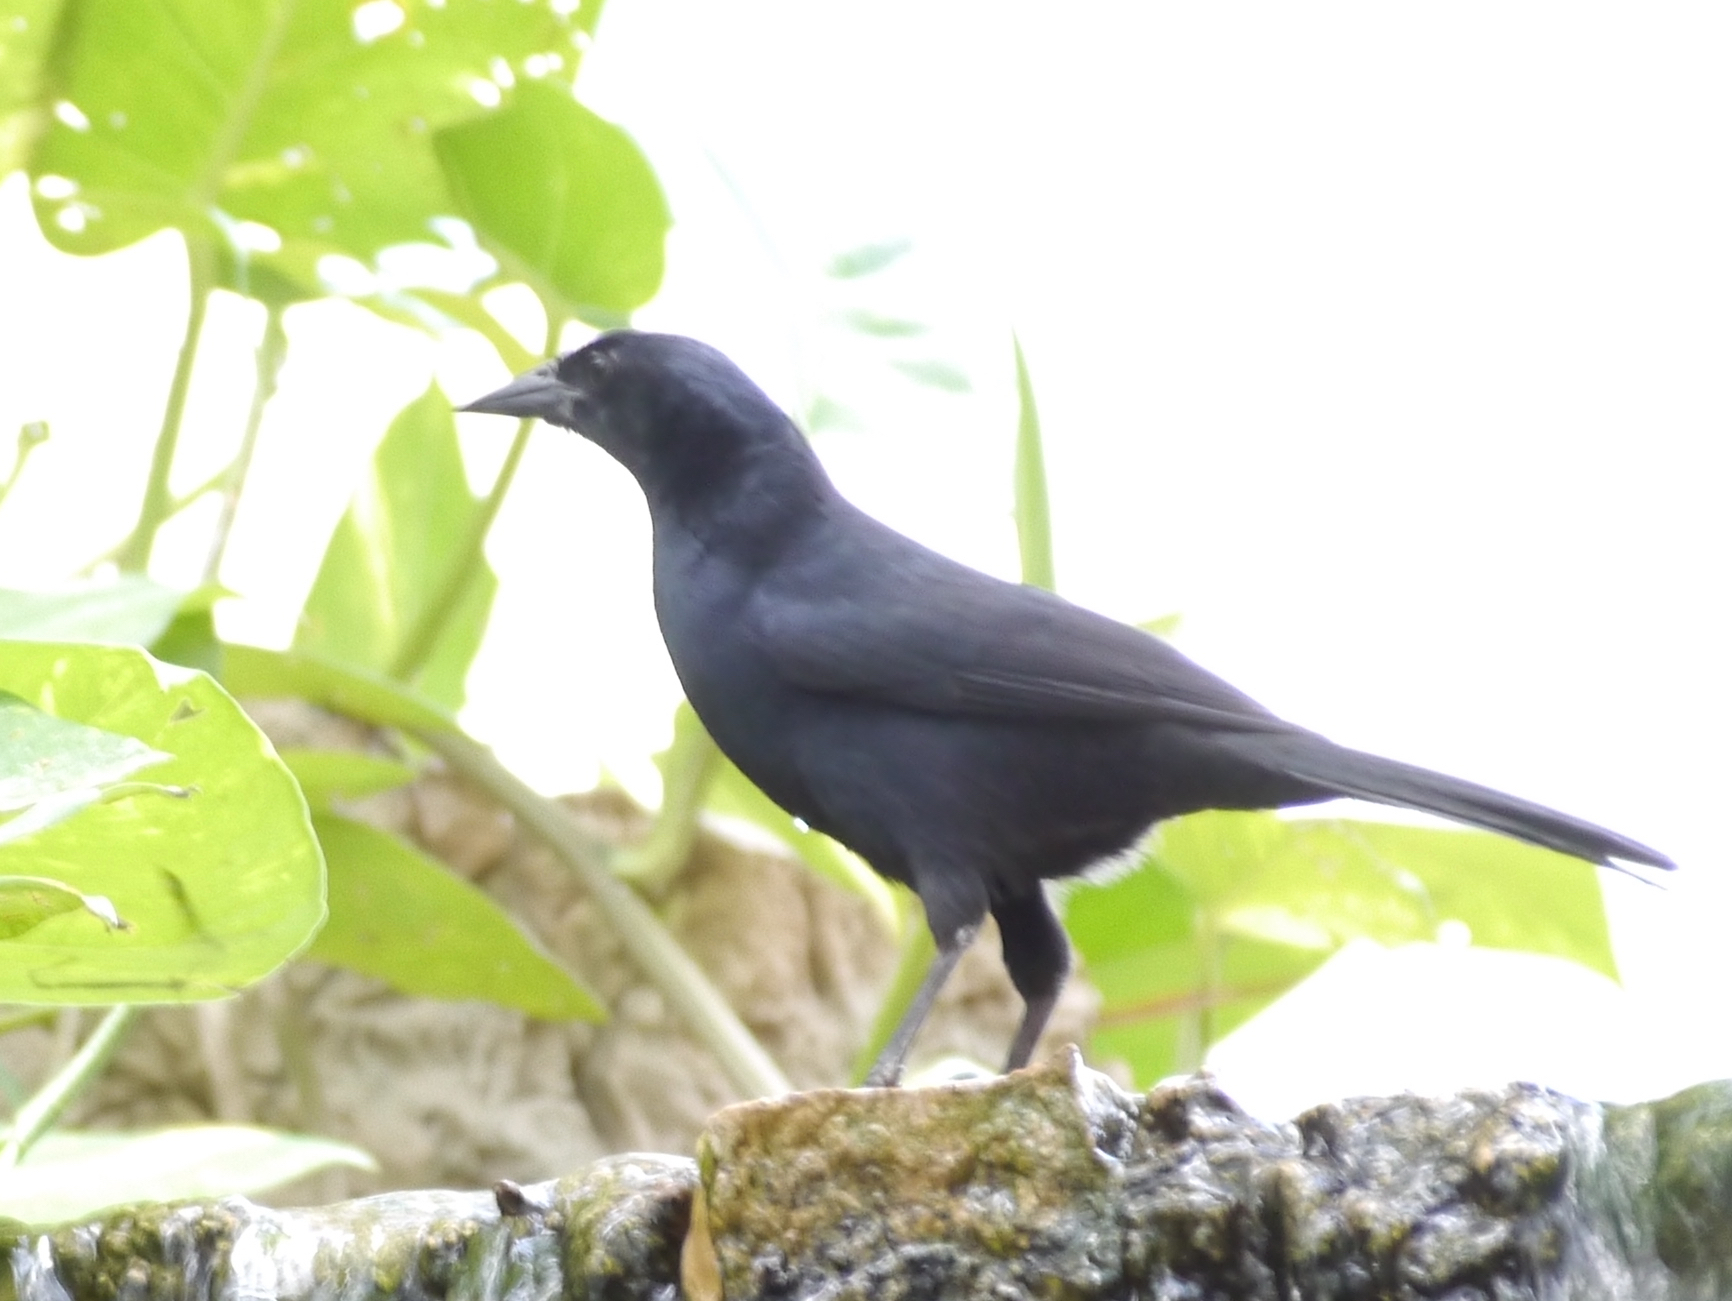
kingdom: Animalia
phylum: Chordata
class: Aves
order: Passeriformes
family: Icteridae
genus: Dives
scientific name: Dives dives
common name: Melodious blackbird
